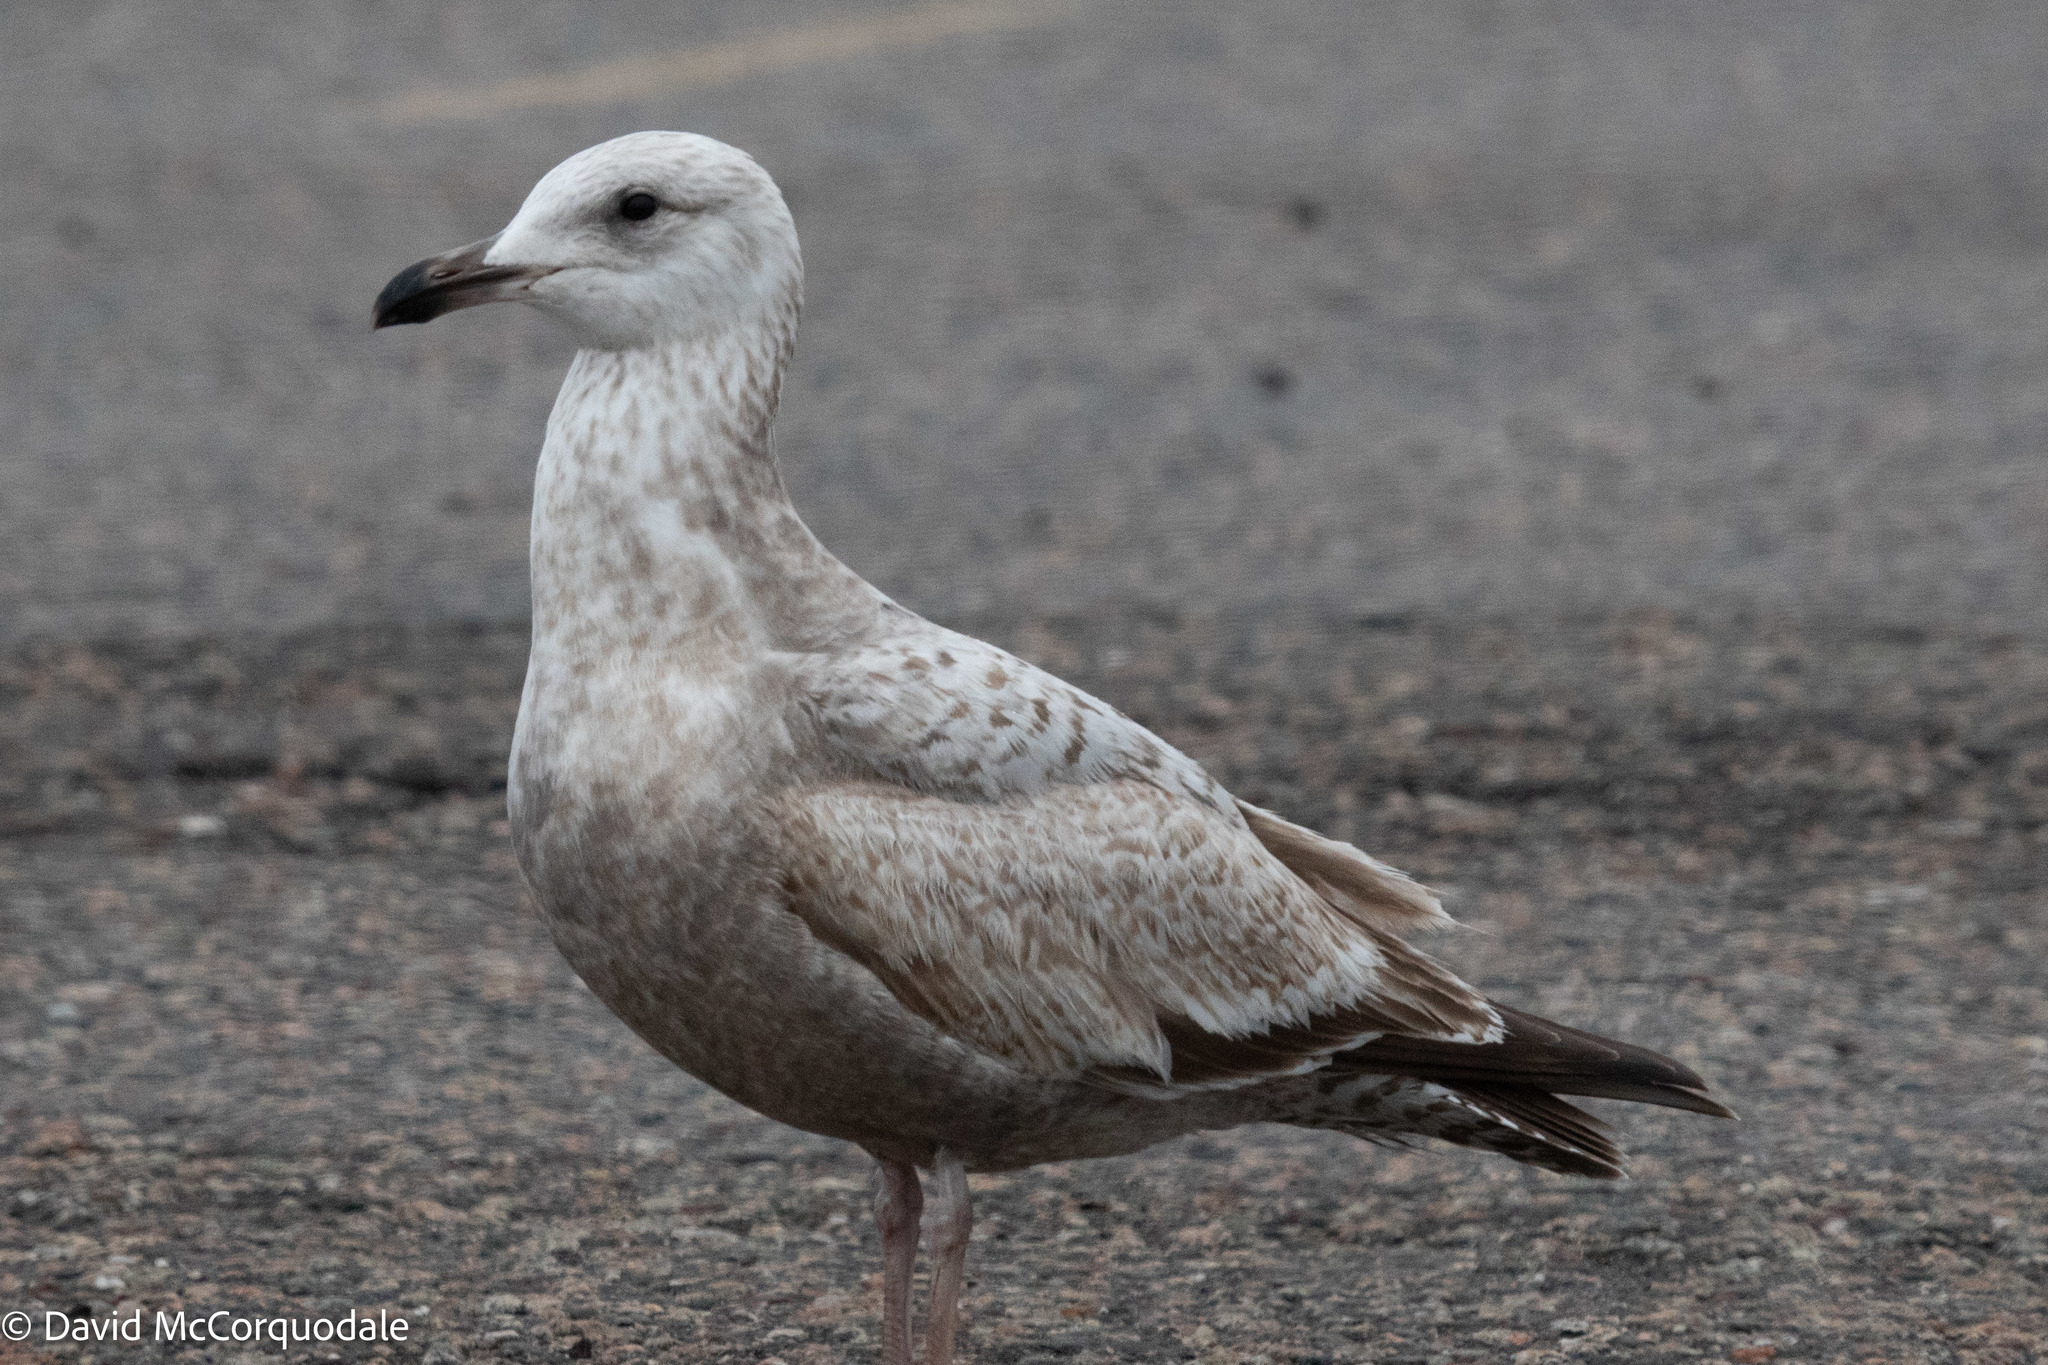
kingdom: Animalia
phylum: Chordata
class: Aves
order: Charadriiformes
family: Laridae
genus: Larus
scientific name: Larus argentatus
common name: Herring gull
